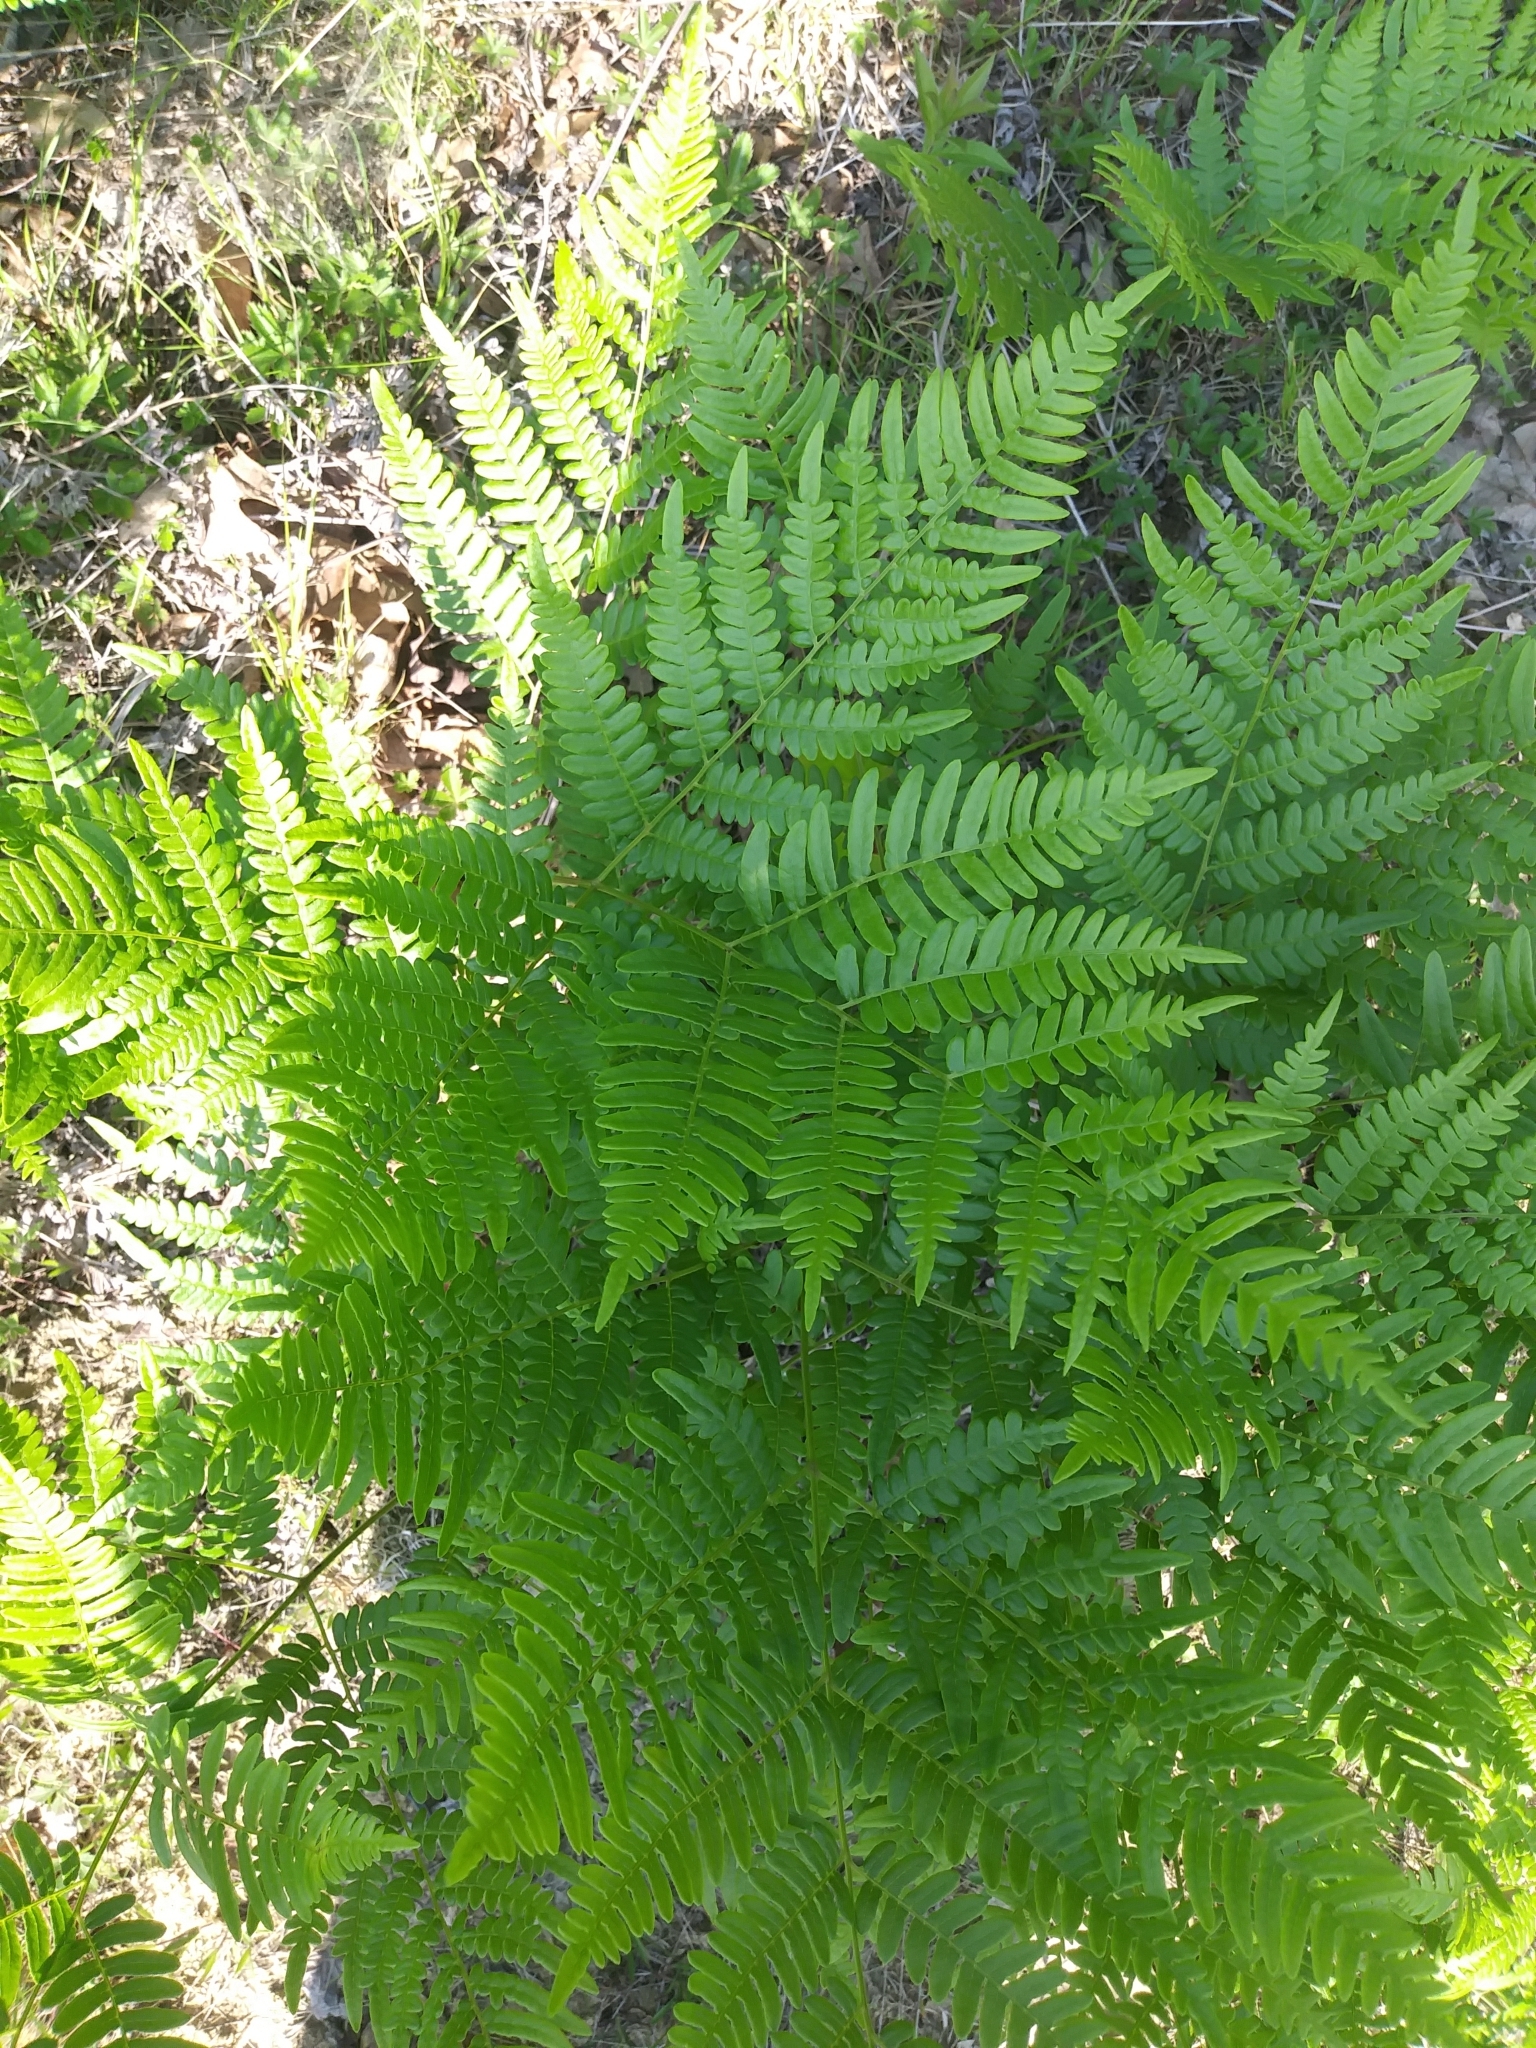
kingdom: Plantae
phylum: Tracheophyta
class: Polypodiopsida
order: Polypodiales
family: Dennstaedtiaceae
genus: Pteridium
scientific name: Pteridium aquilinum
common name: Bracken
